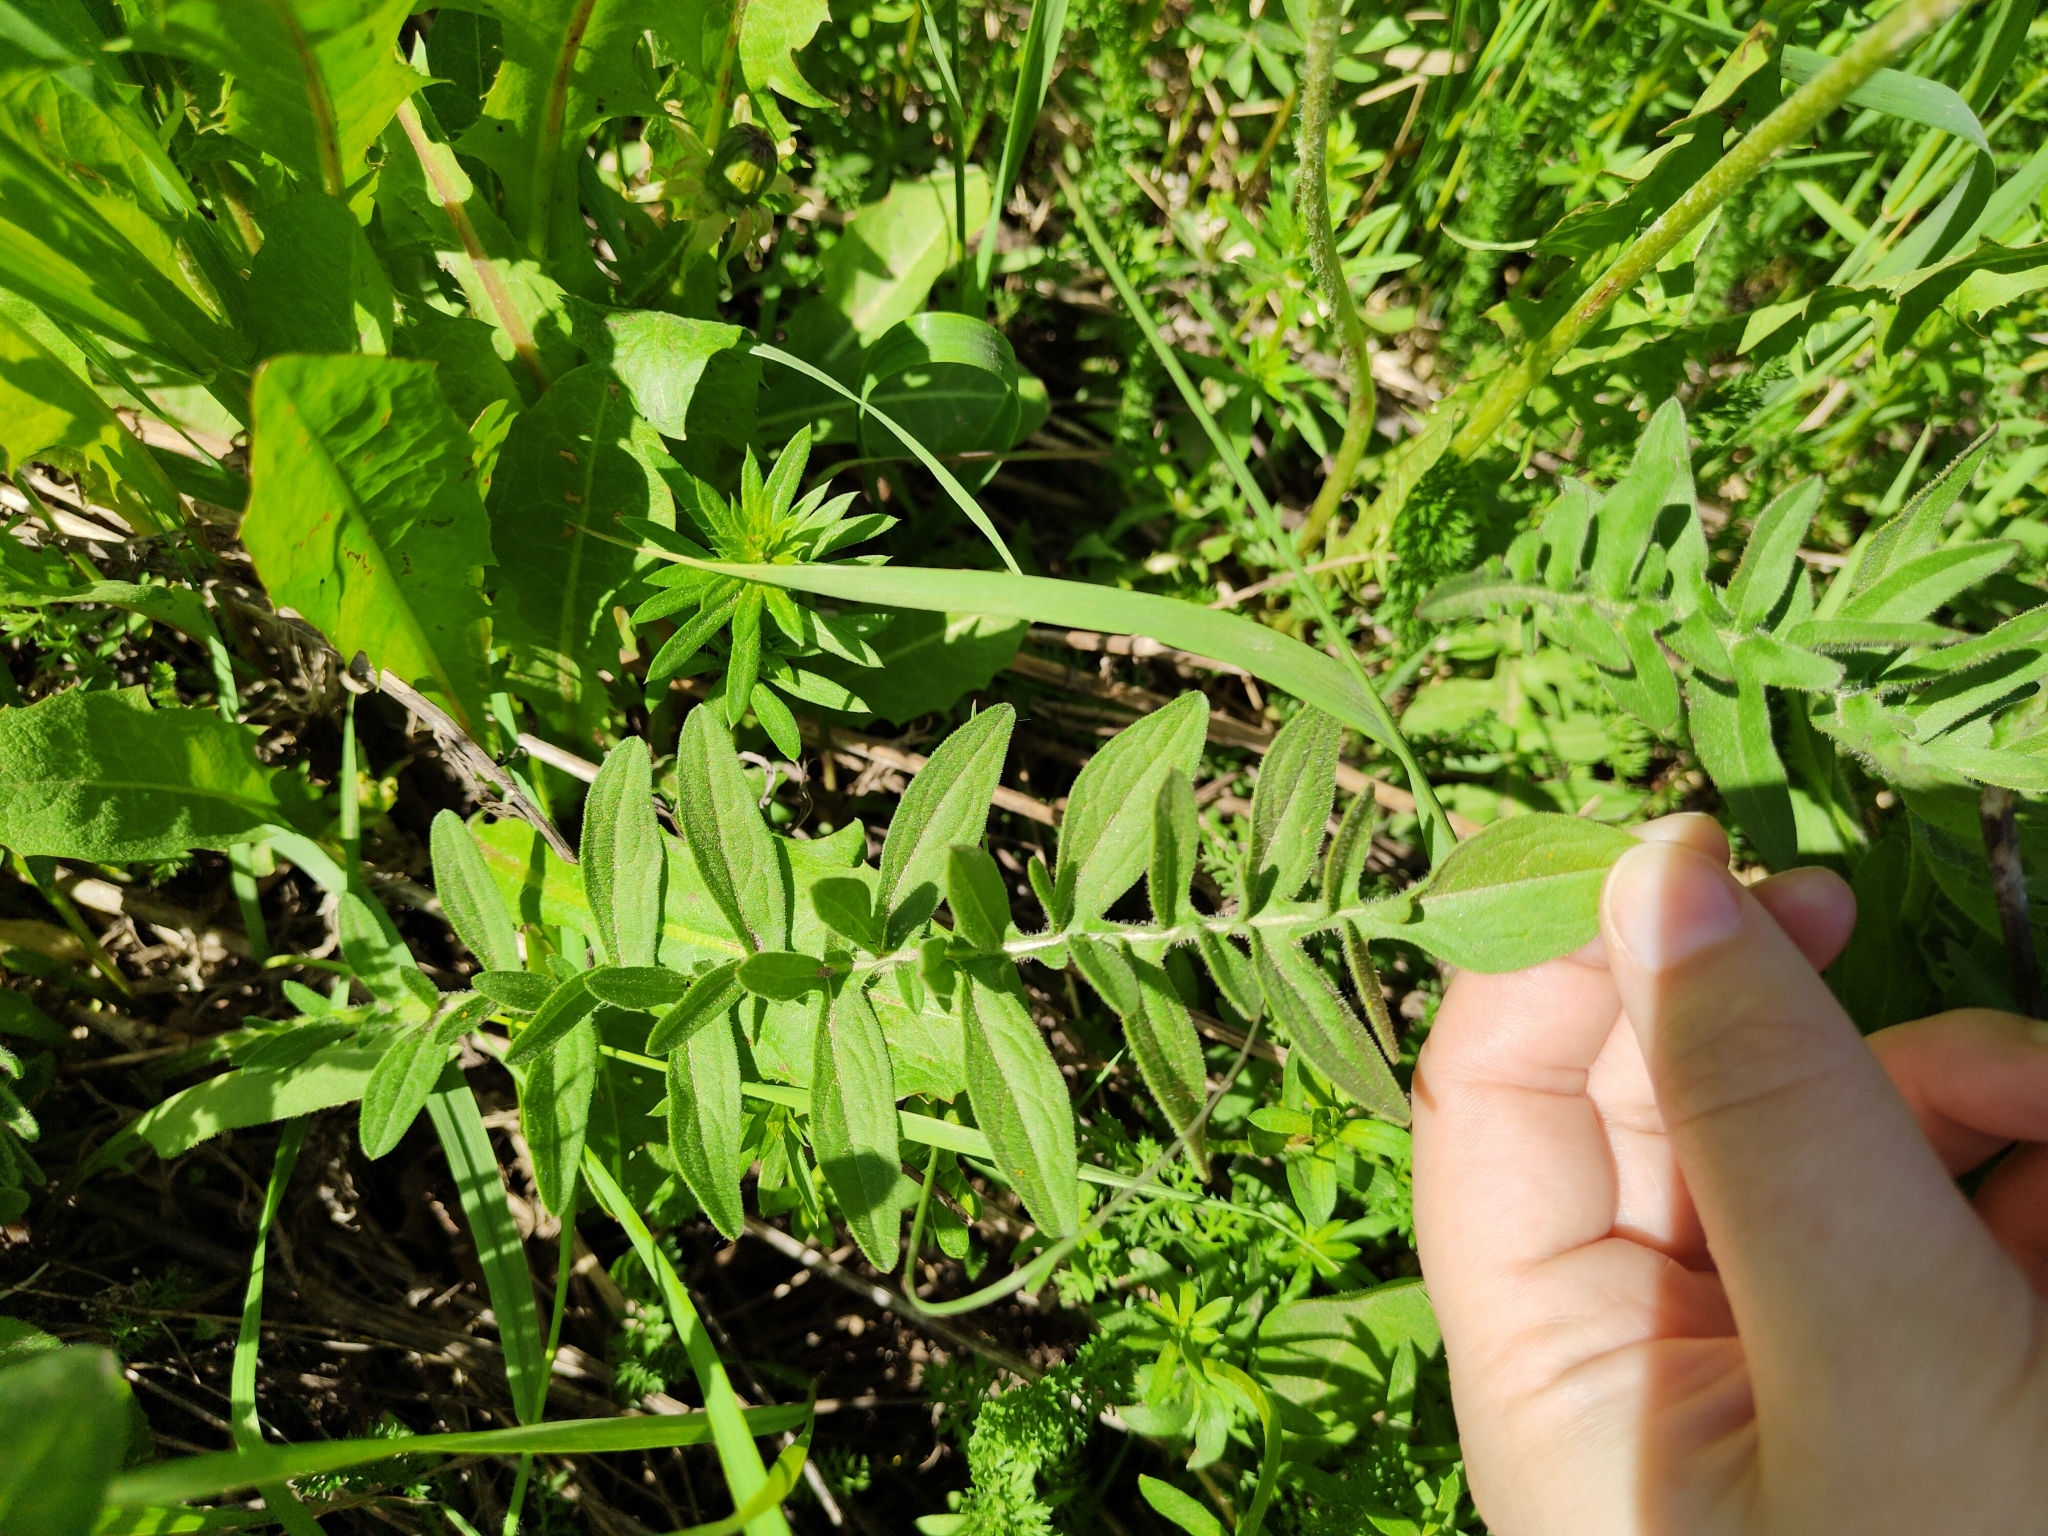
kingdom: Plantae
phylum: Tracheophyta
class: Magnoliopsida
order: Asterales
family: Asteraceae
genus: Centaurea
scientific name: Centaurea scabiosa
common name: Greater knapweed
